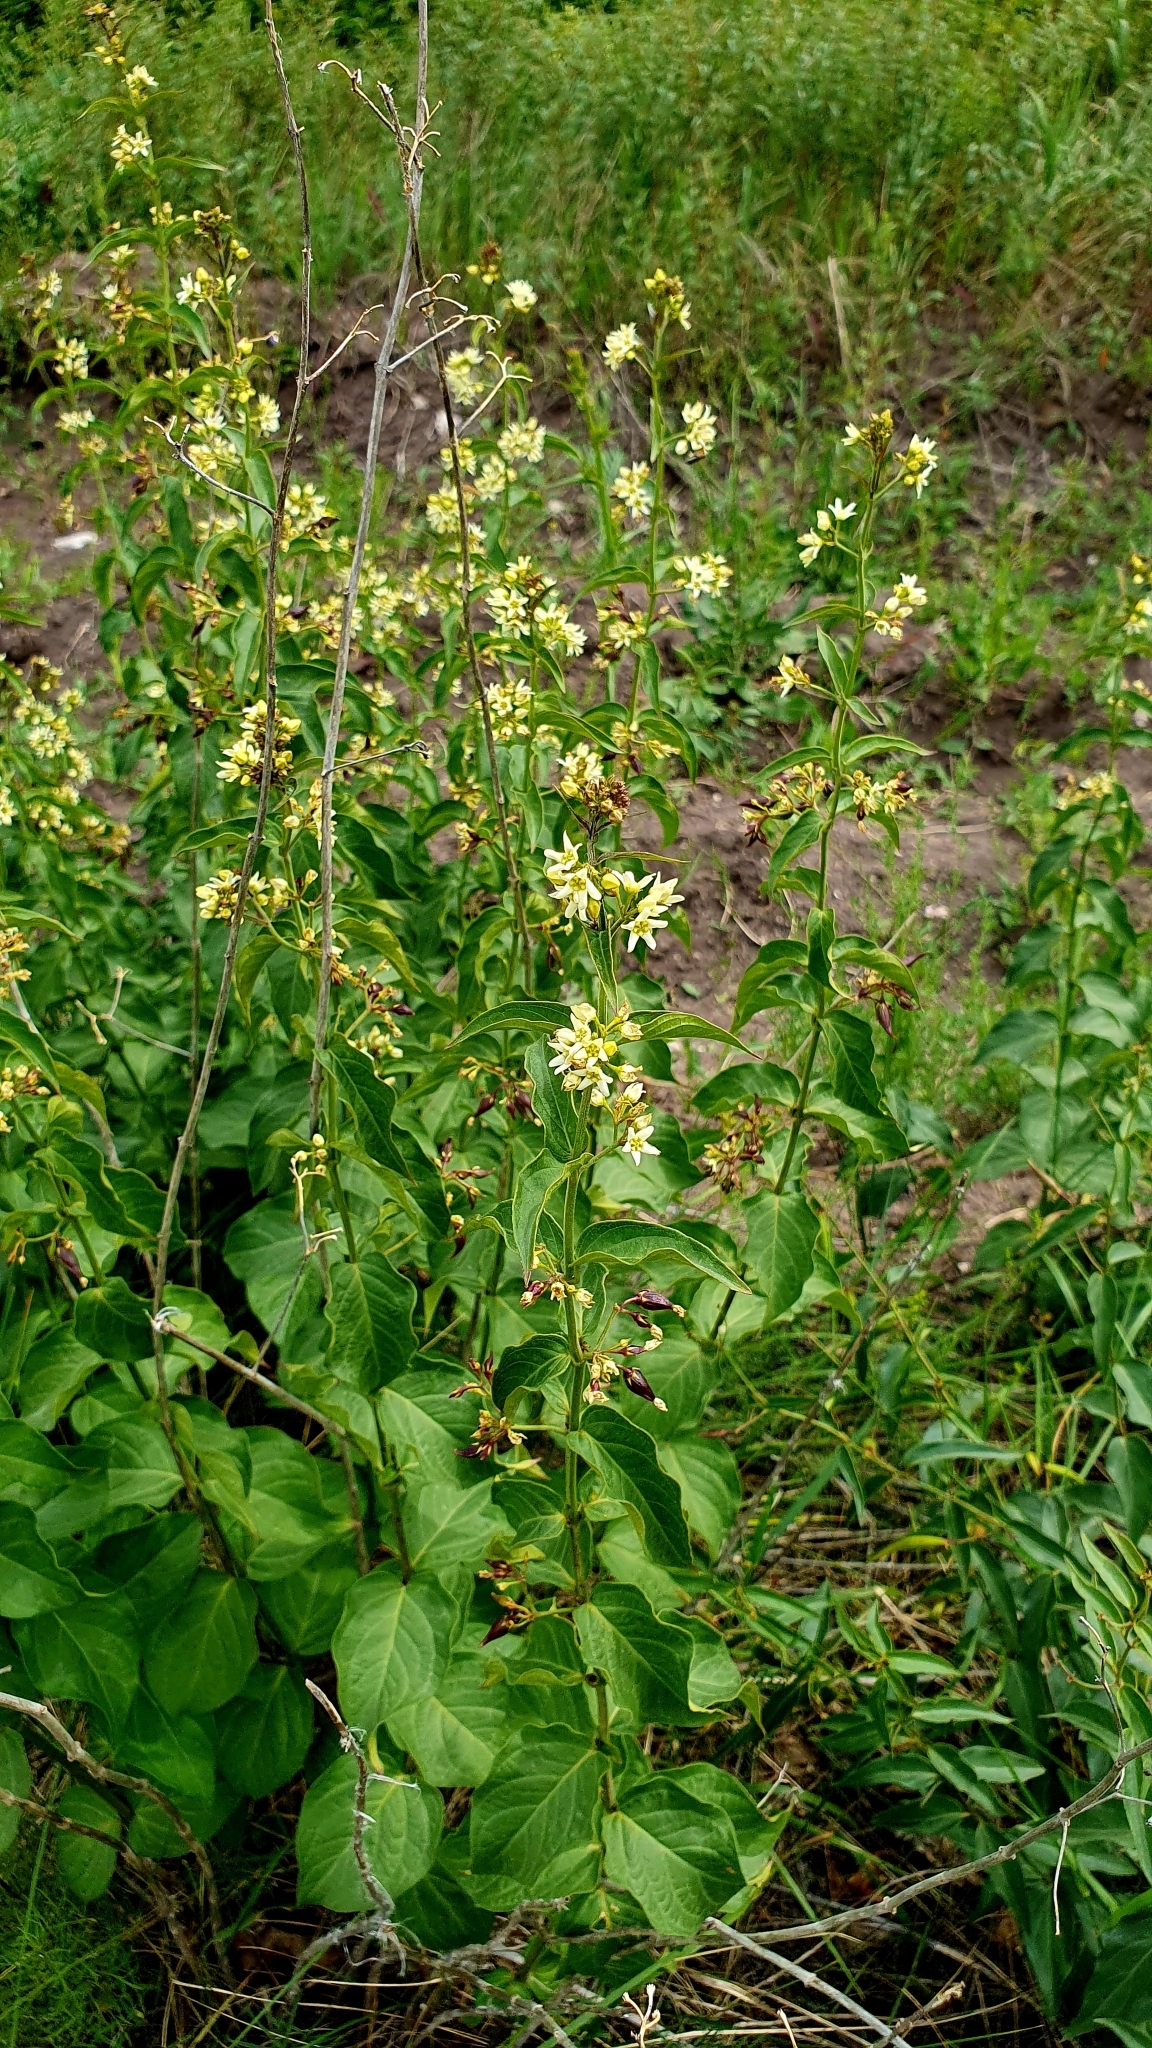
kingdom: Plantae
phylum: Tracheophyta
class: Magnoliopsida
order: Gentianales
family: Apocynaceae
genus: Vincetoxicum
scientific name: Vincetoxicum hirundinaria
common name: White swallowwort
